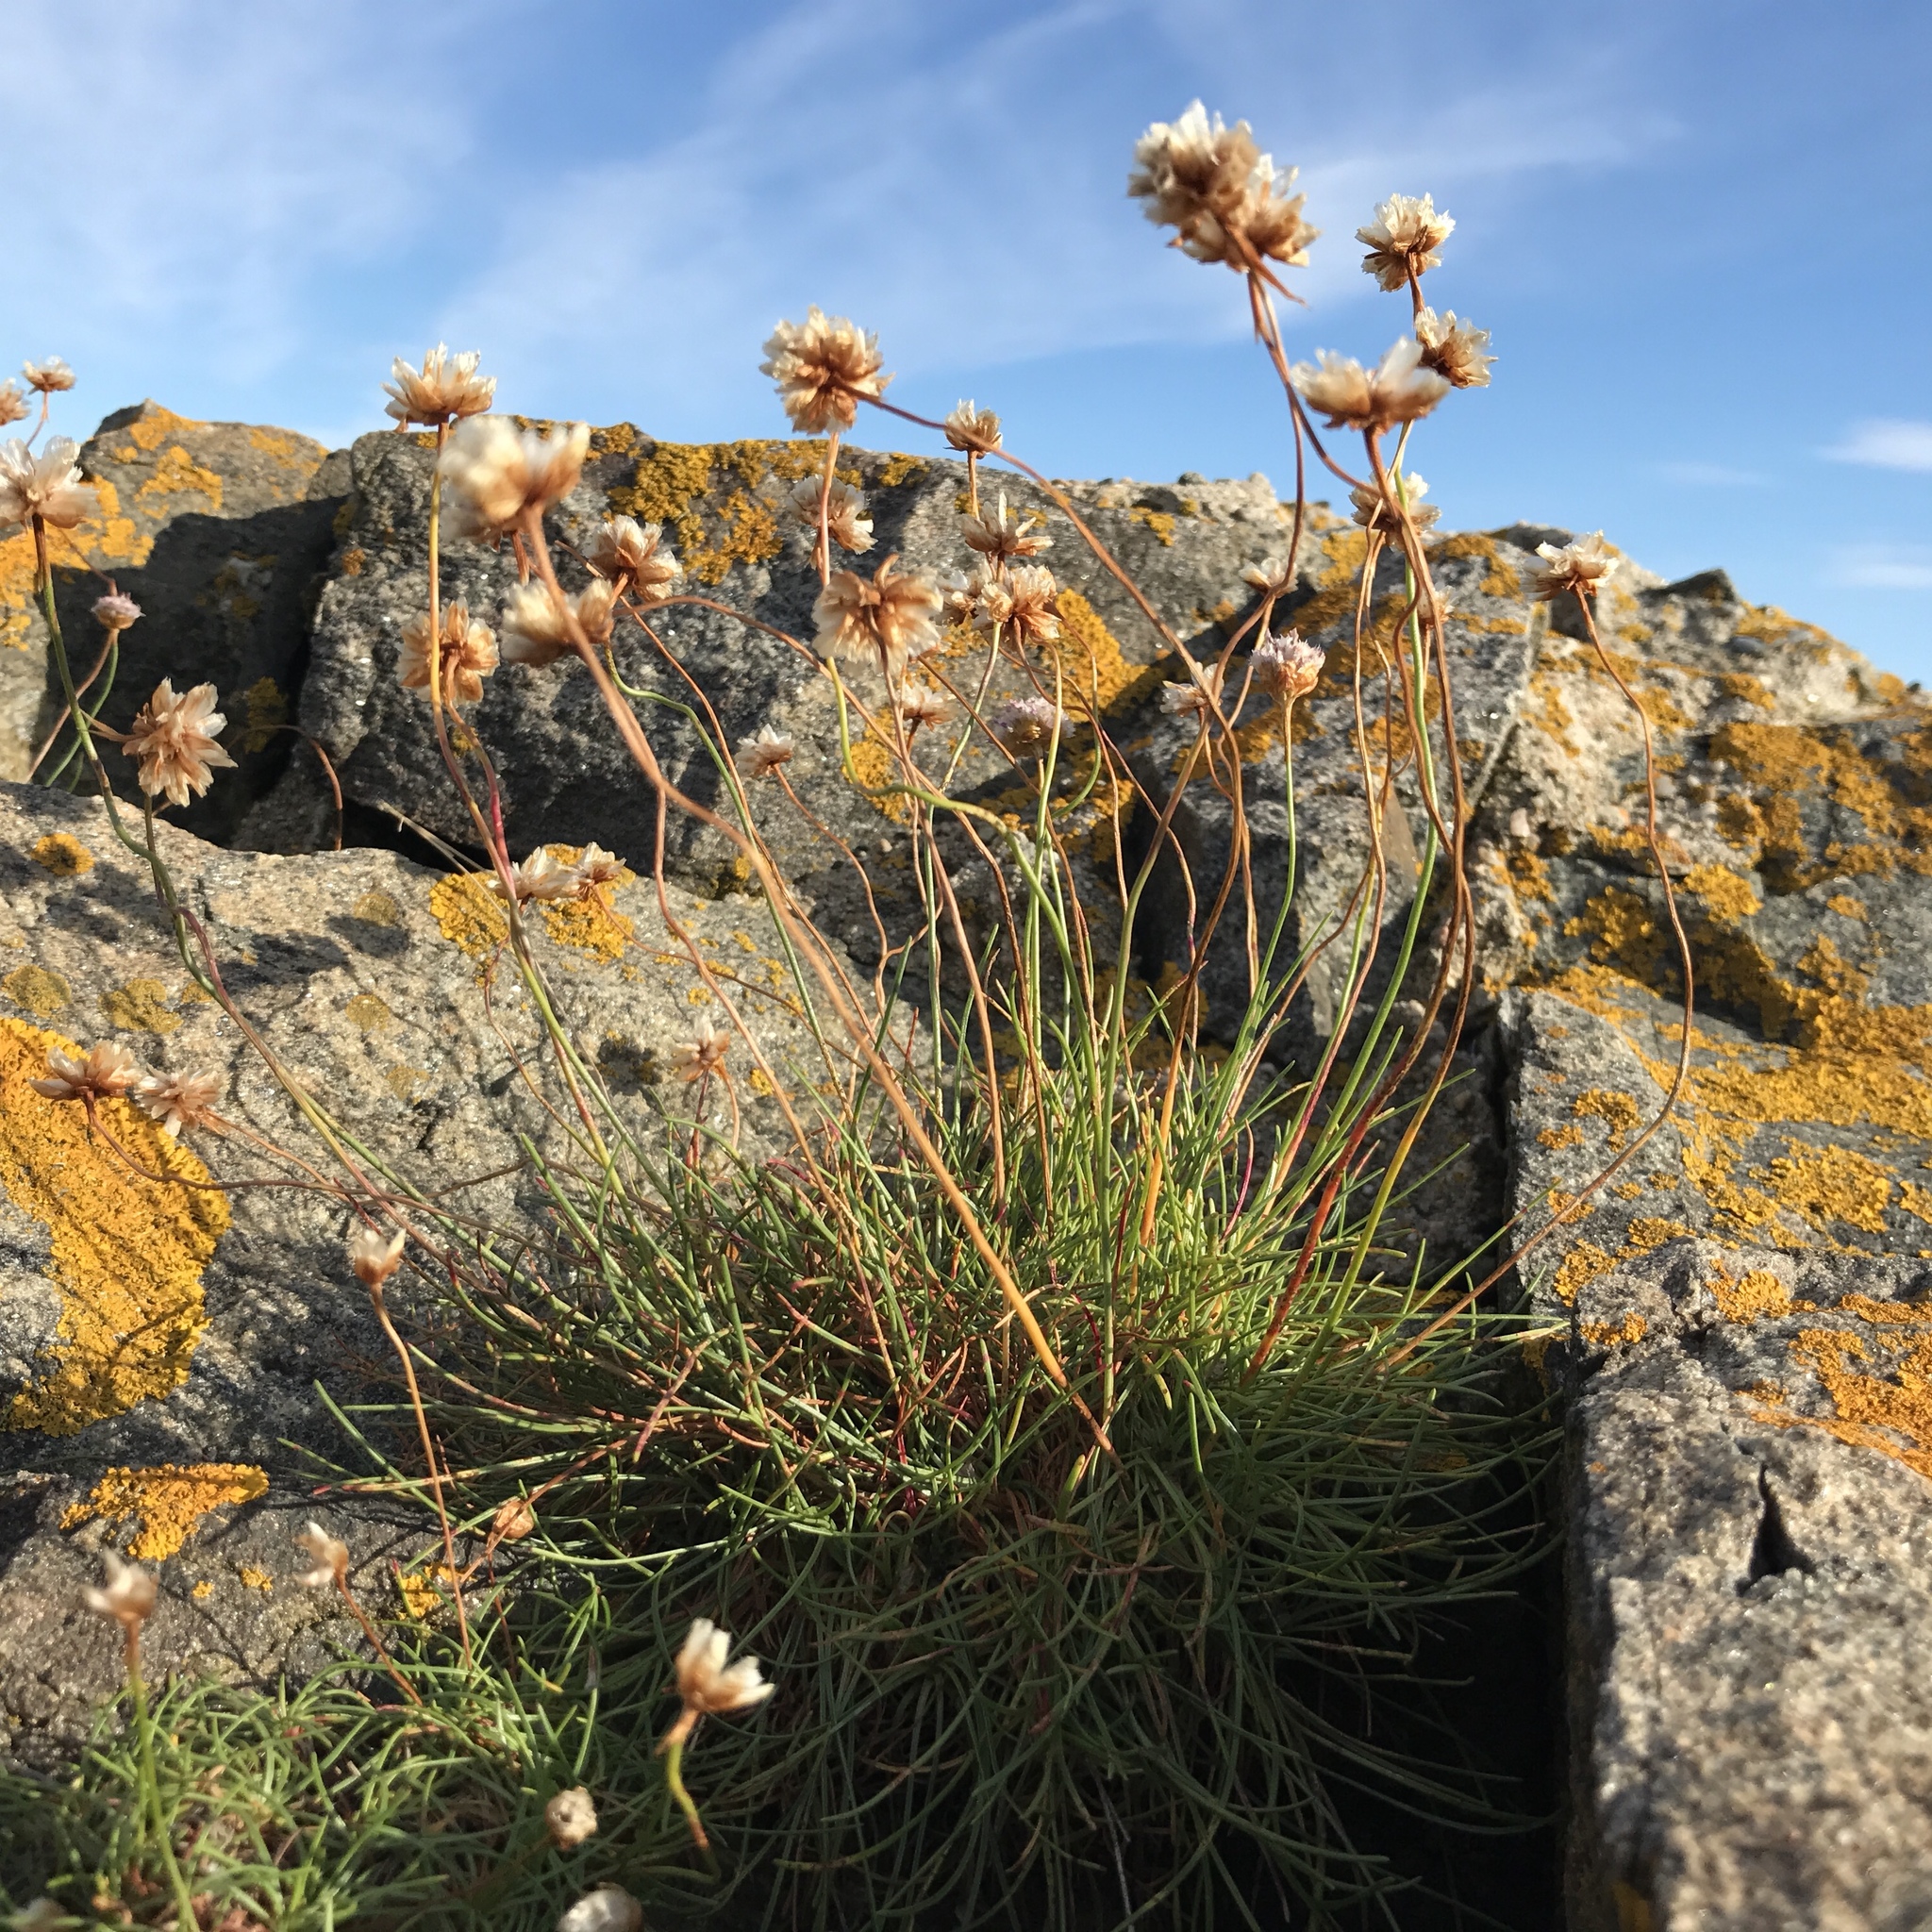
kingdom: Plantae
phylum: Tracheophyta
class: Magnoliopsida
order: Caryophyllales
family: Plumbaginaceae
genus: Armeria
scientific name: Armeria maritima
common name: Thrift
